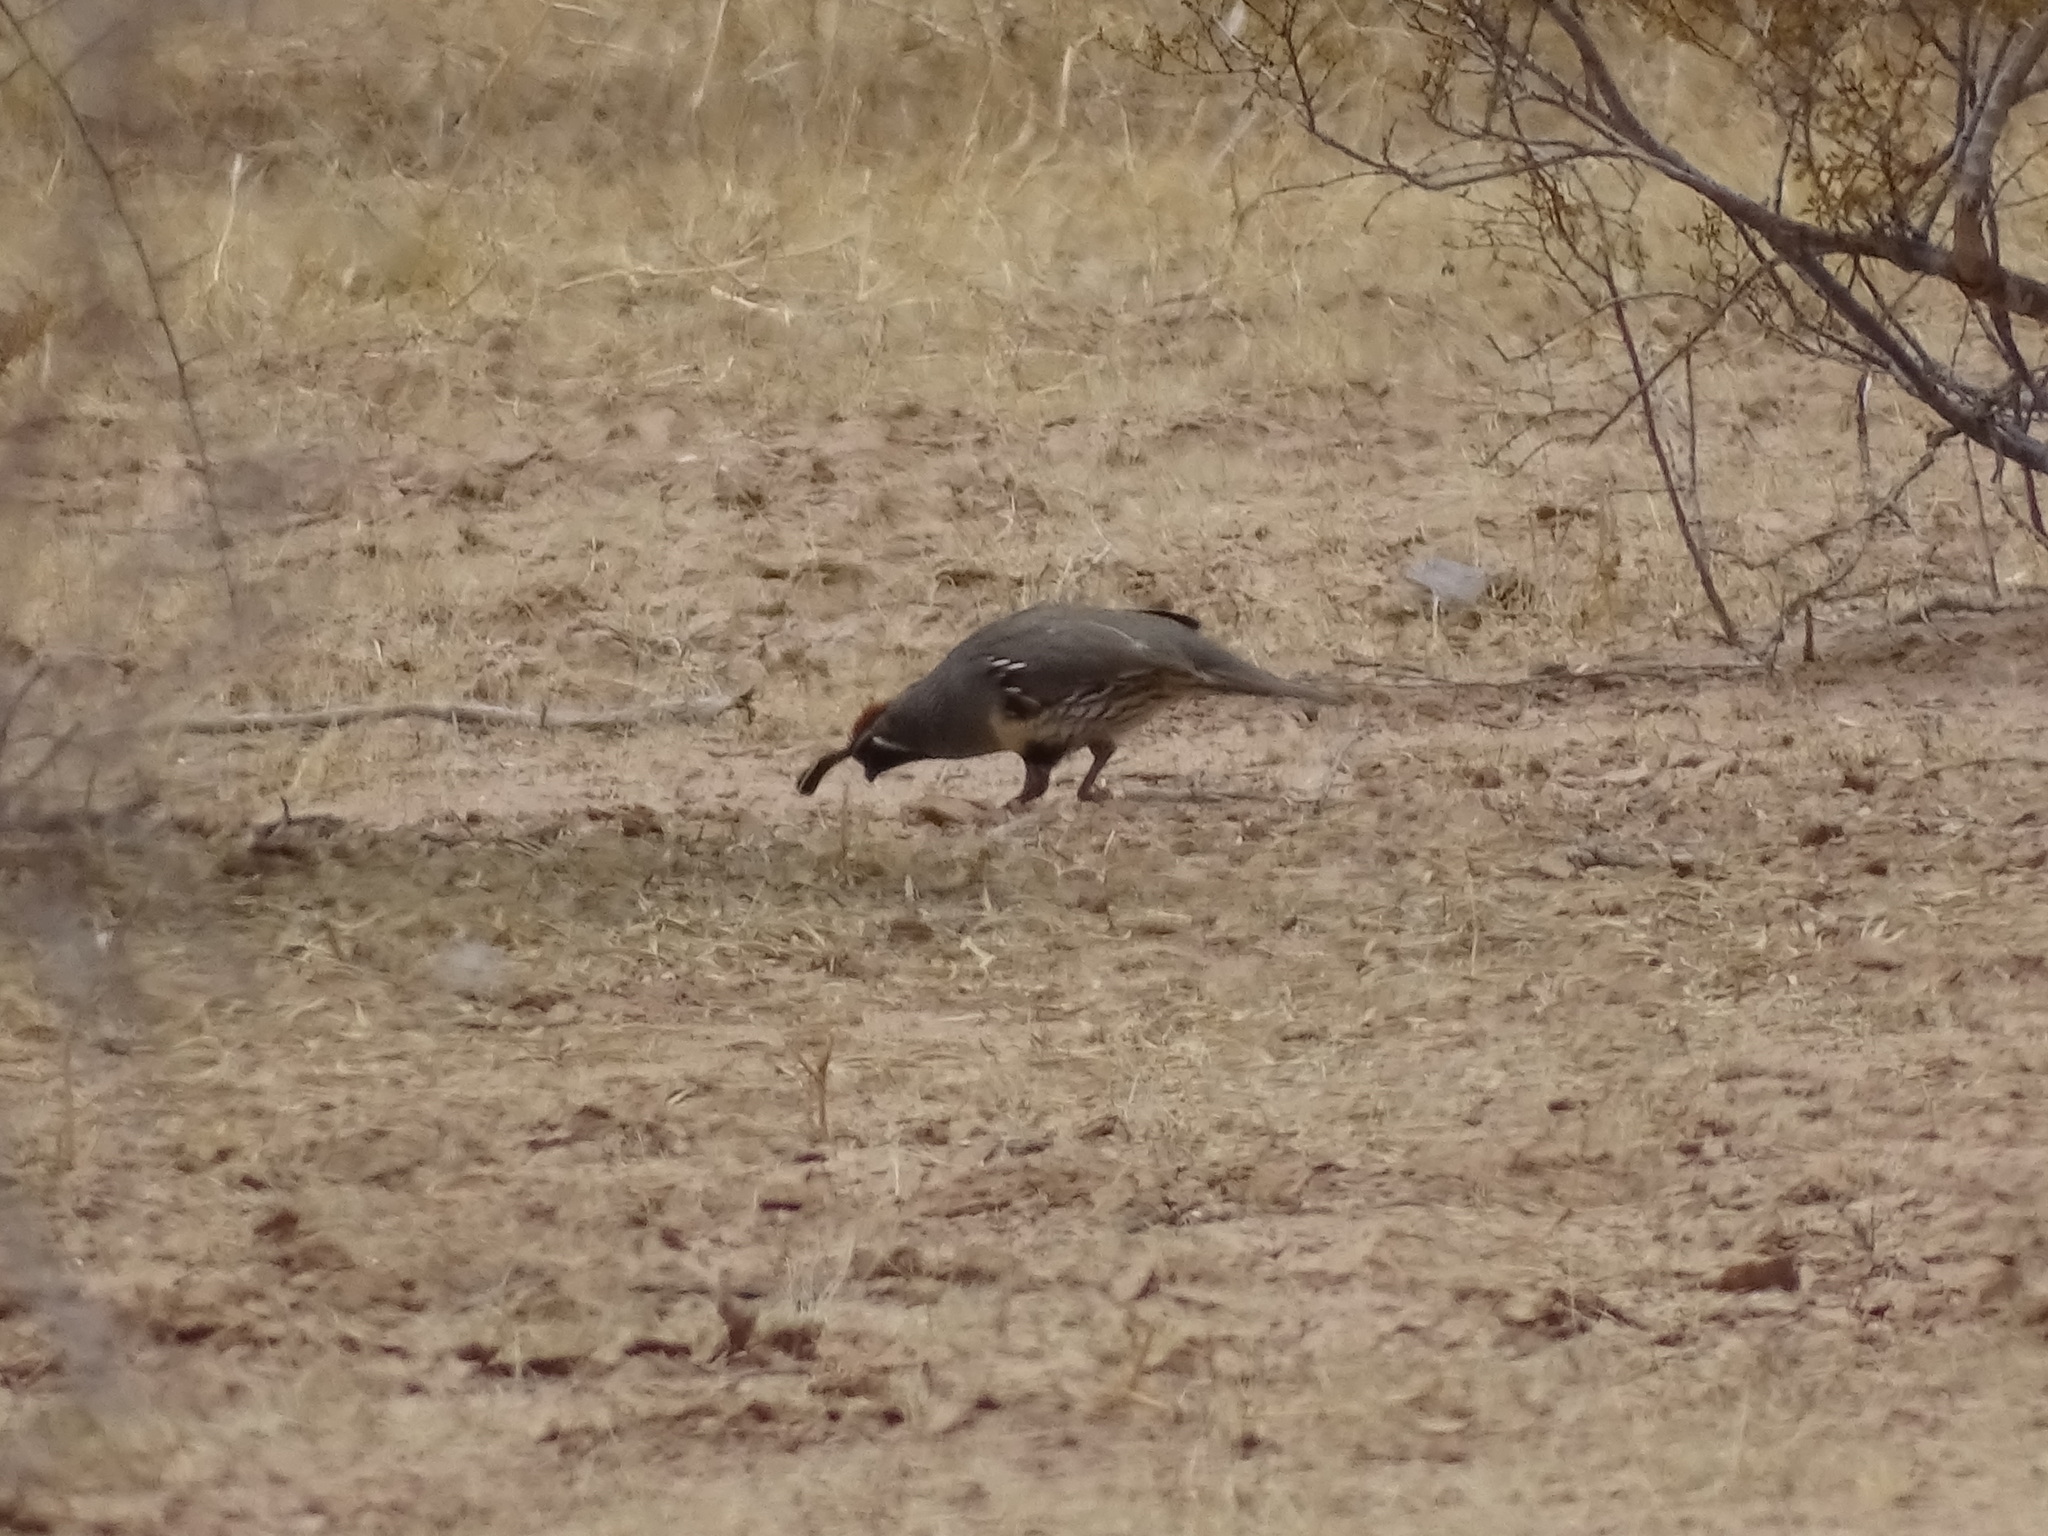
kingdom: Animalia
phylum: Chordata
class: Aves
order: Galliformes
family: Odontophoridae
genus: Callipepla
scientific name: Callipepla gambelii
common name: Gambel's quail
